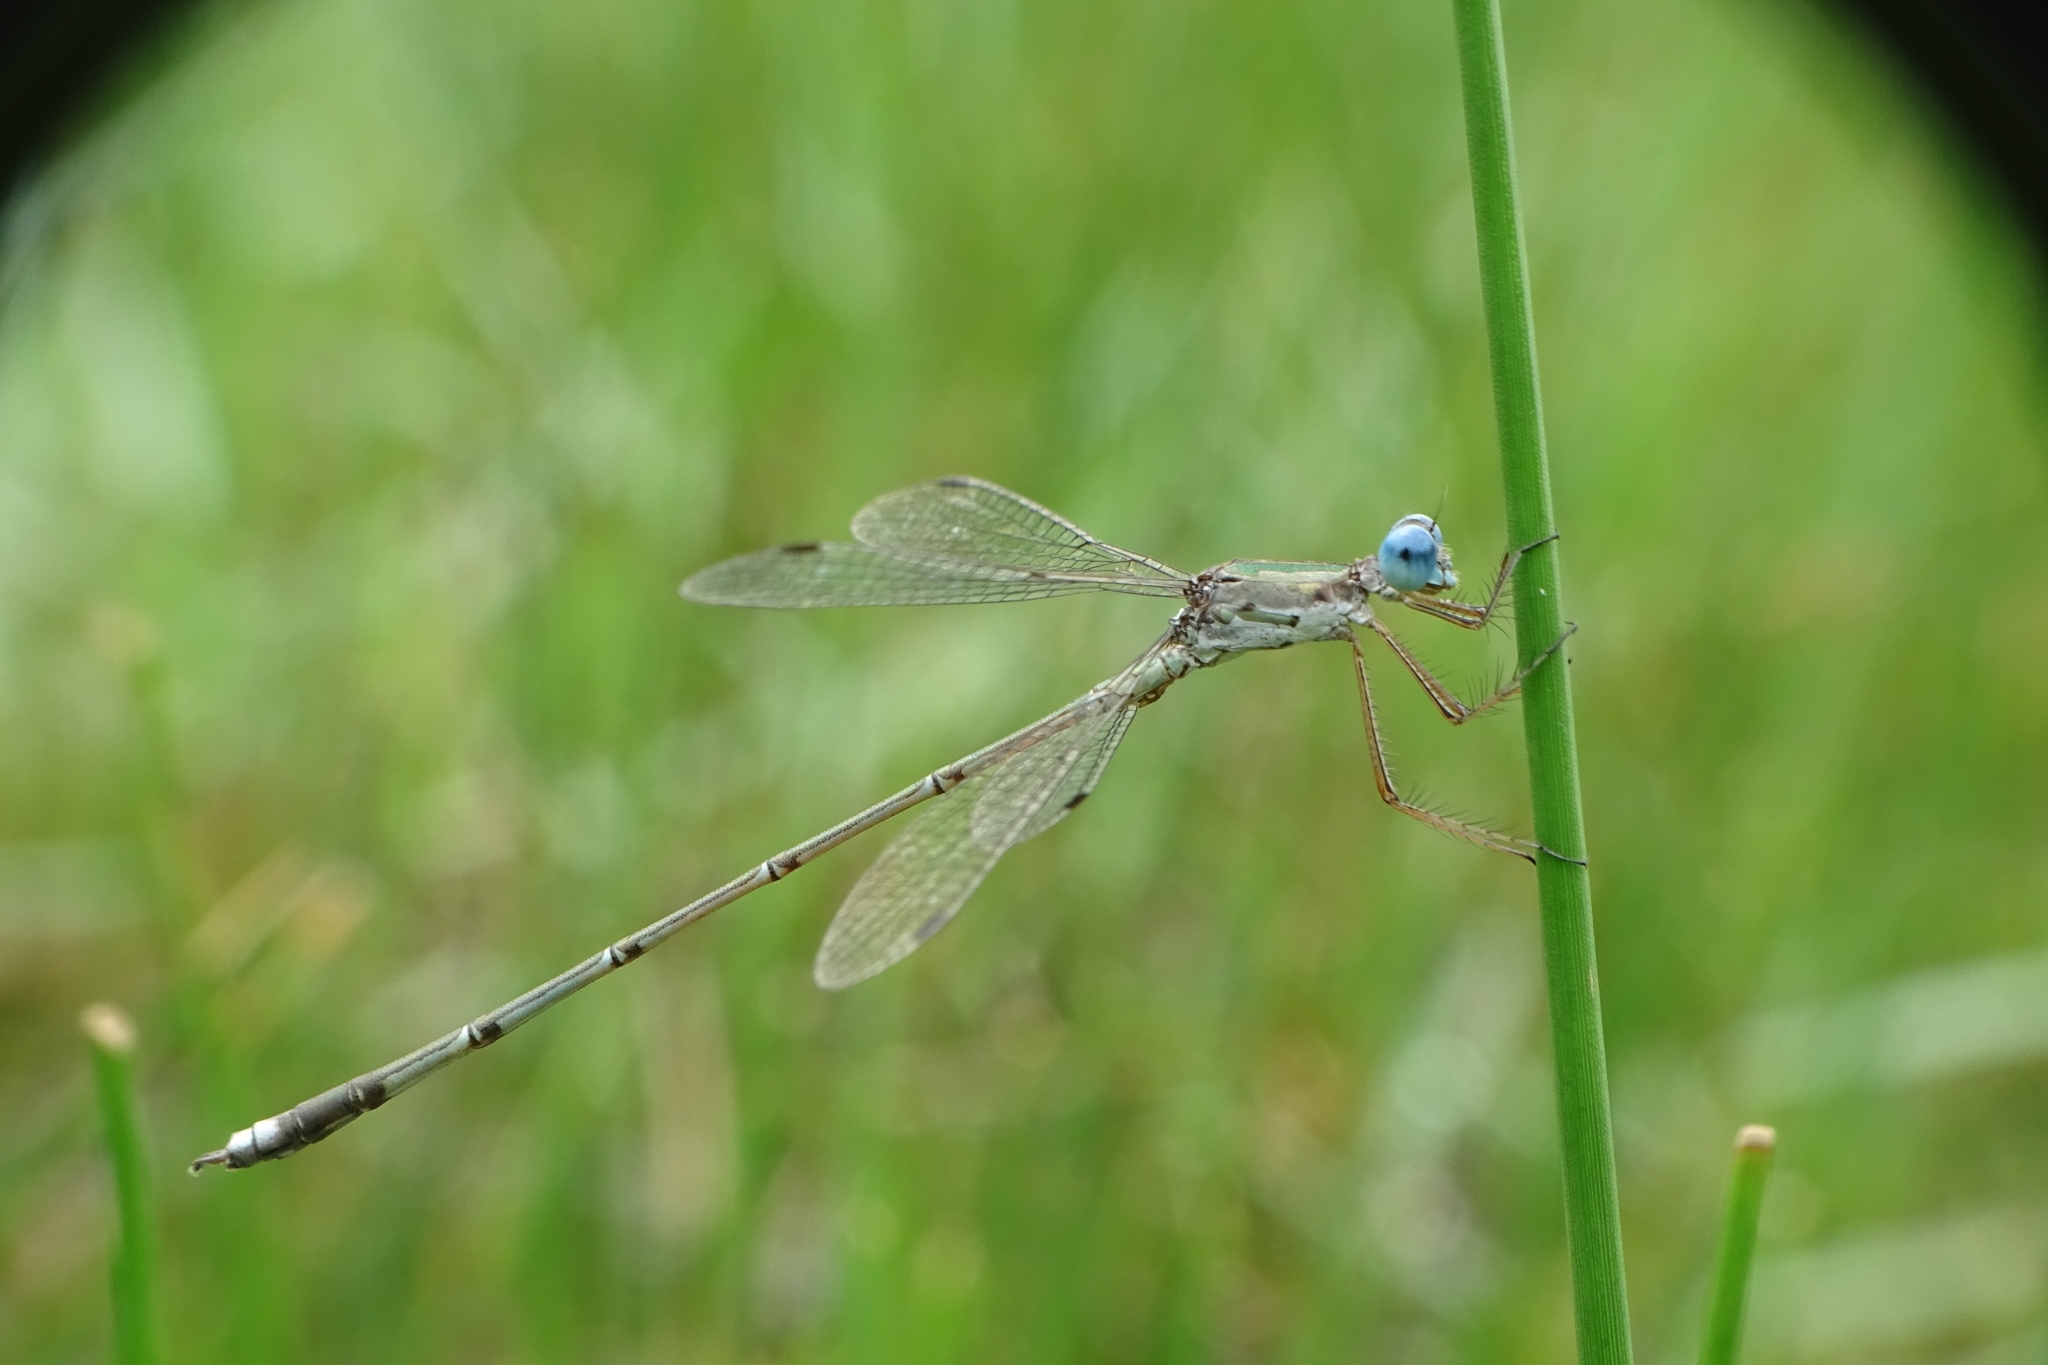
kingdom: Animalia
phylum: Arthropoda
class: Insecta
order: Odonata
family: Lestidae
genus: Lestes
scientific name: Lestes elatus
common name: Emerald spreadwing
